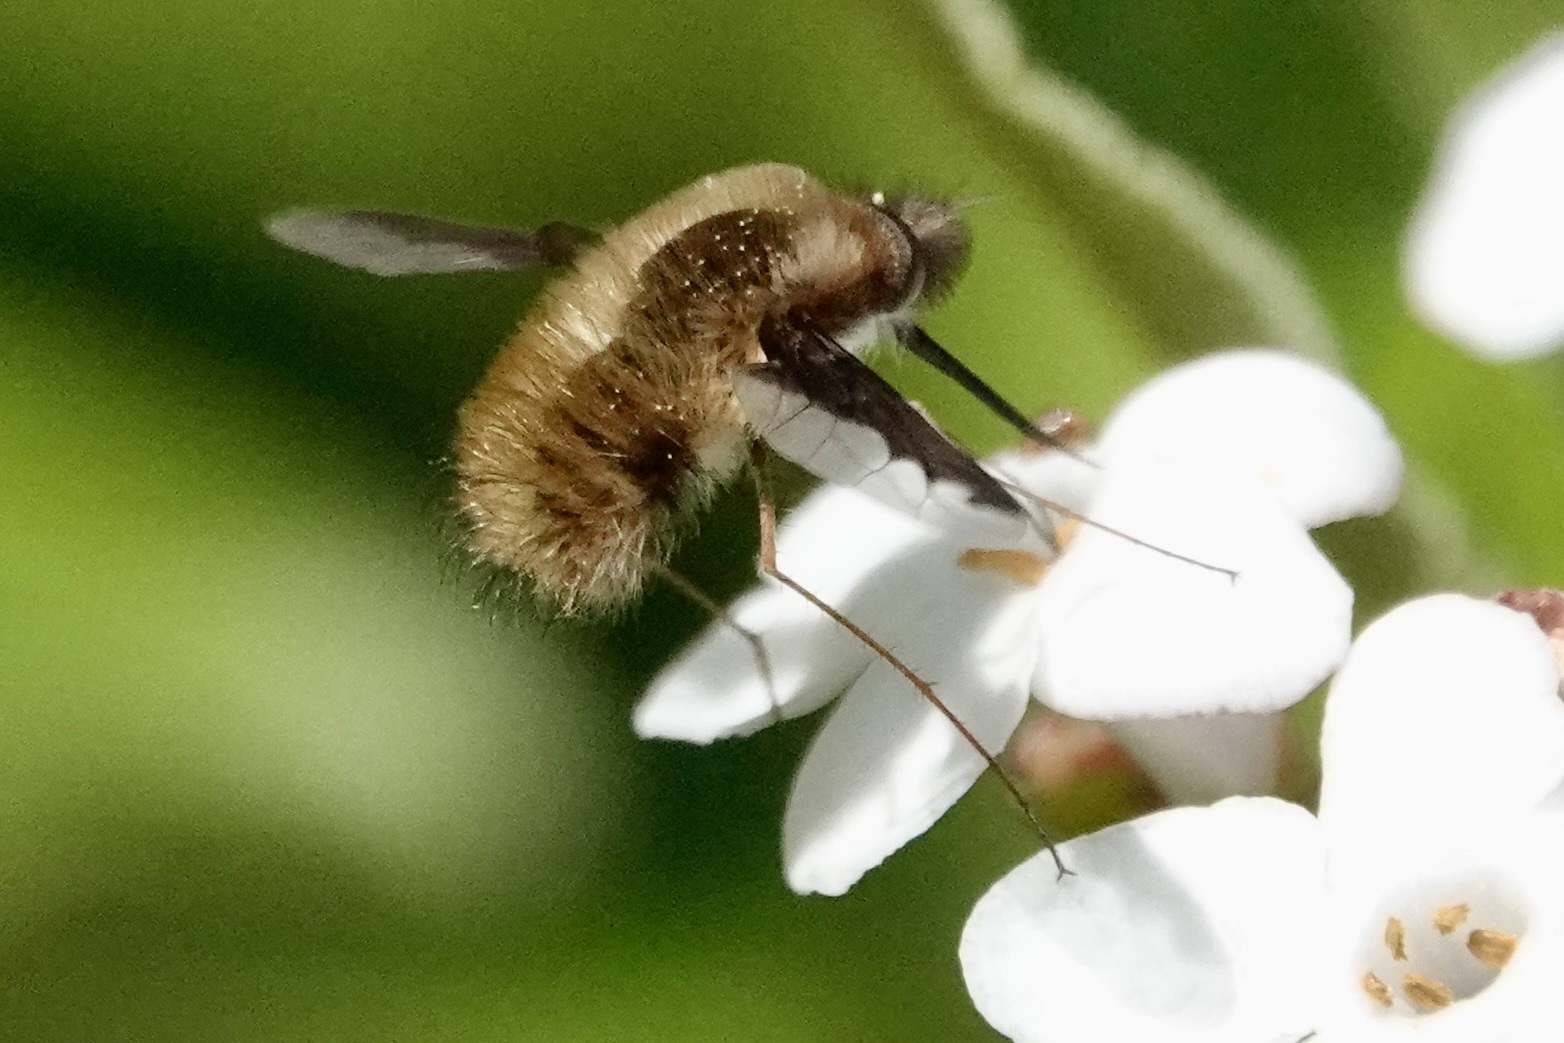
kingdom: Animalia
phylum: Arthropoda
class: Insecta
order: Diptera
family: Bombyliidae
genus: Bombylius
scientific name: Bombylius major
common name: Bee fly
